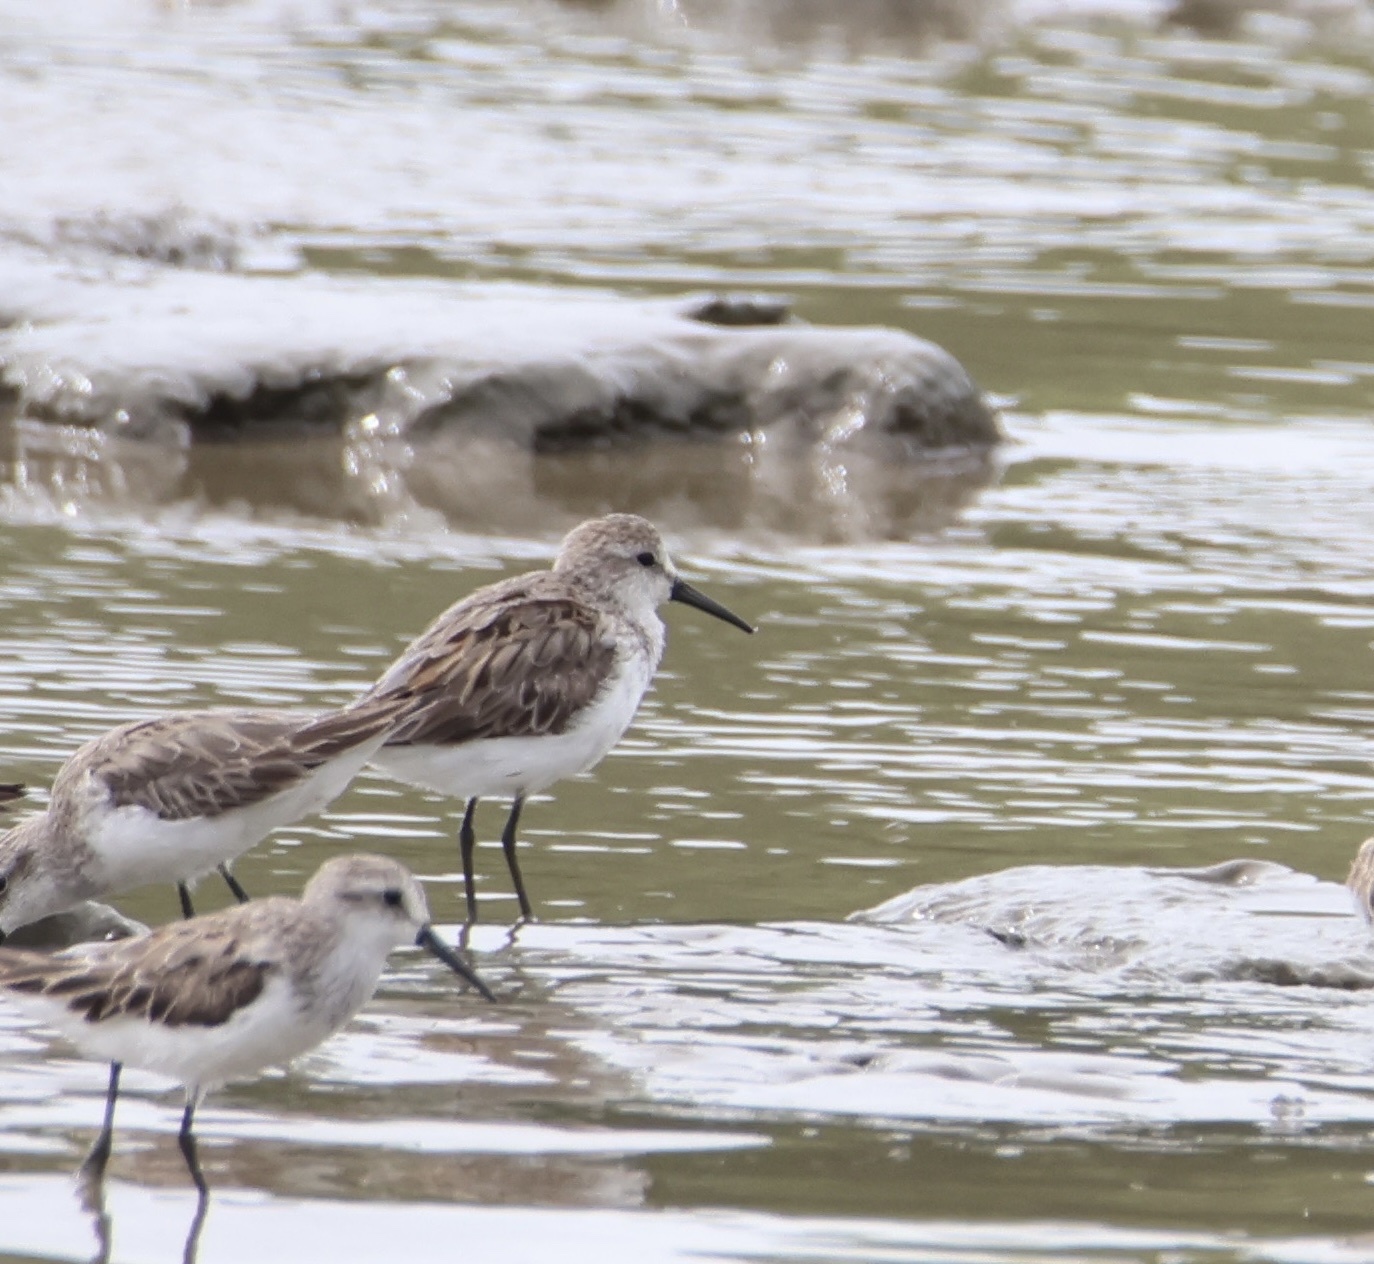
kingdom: Animalia
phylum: Chordata
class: Aves
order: Charadriiformes
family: Scolopacidae
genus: Calidris
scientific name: Calidris mauri
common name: Western sandpiper
